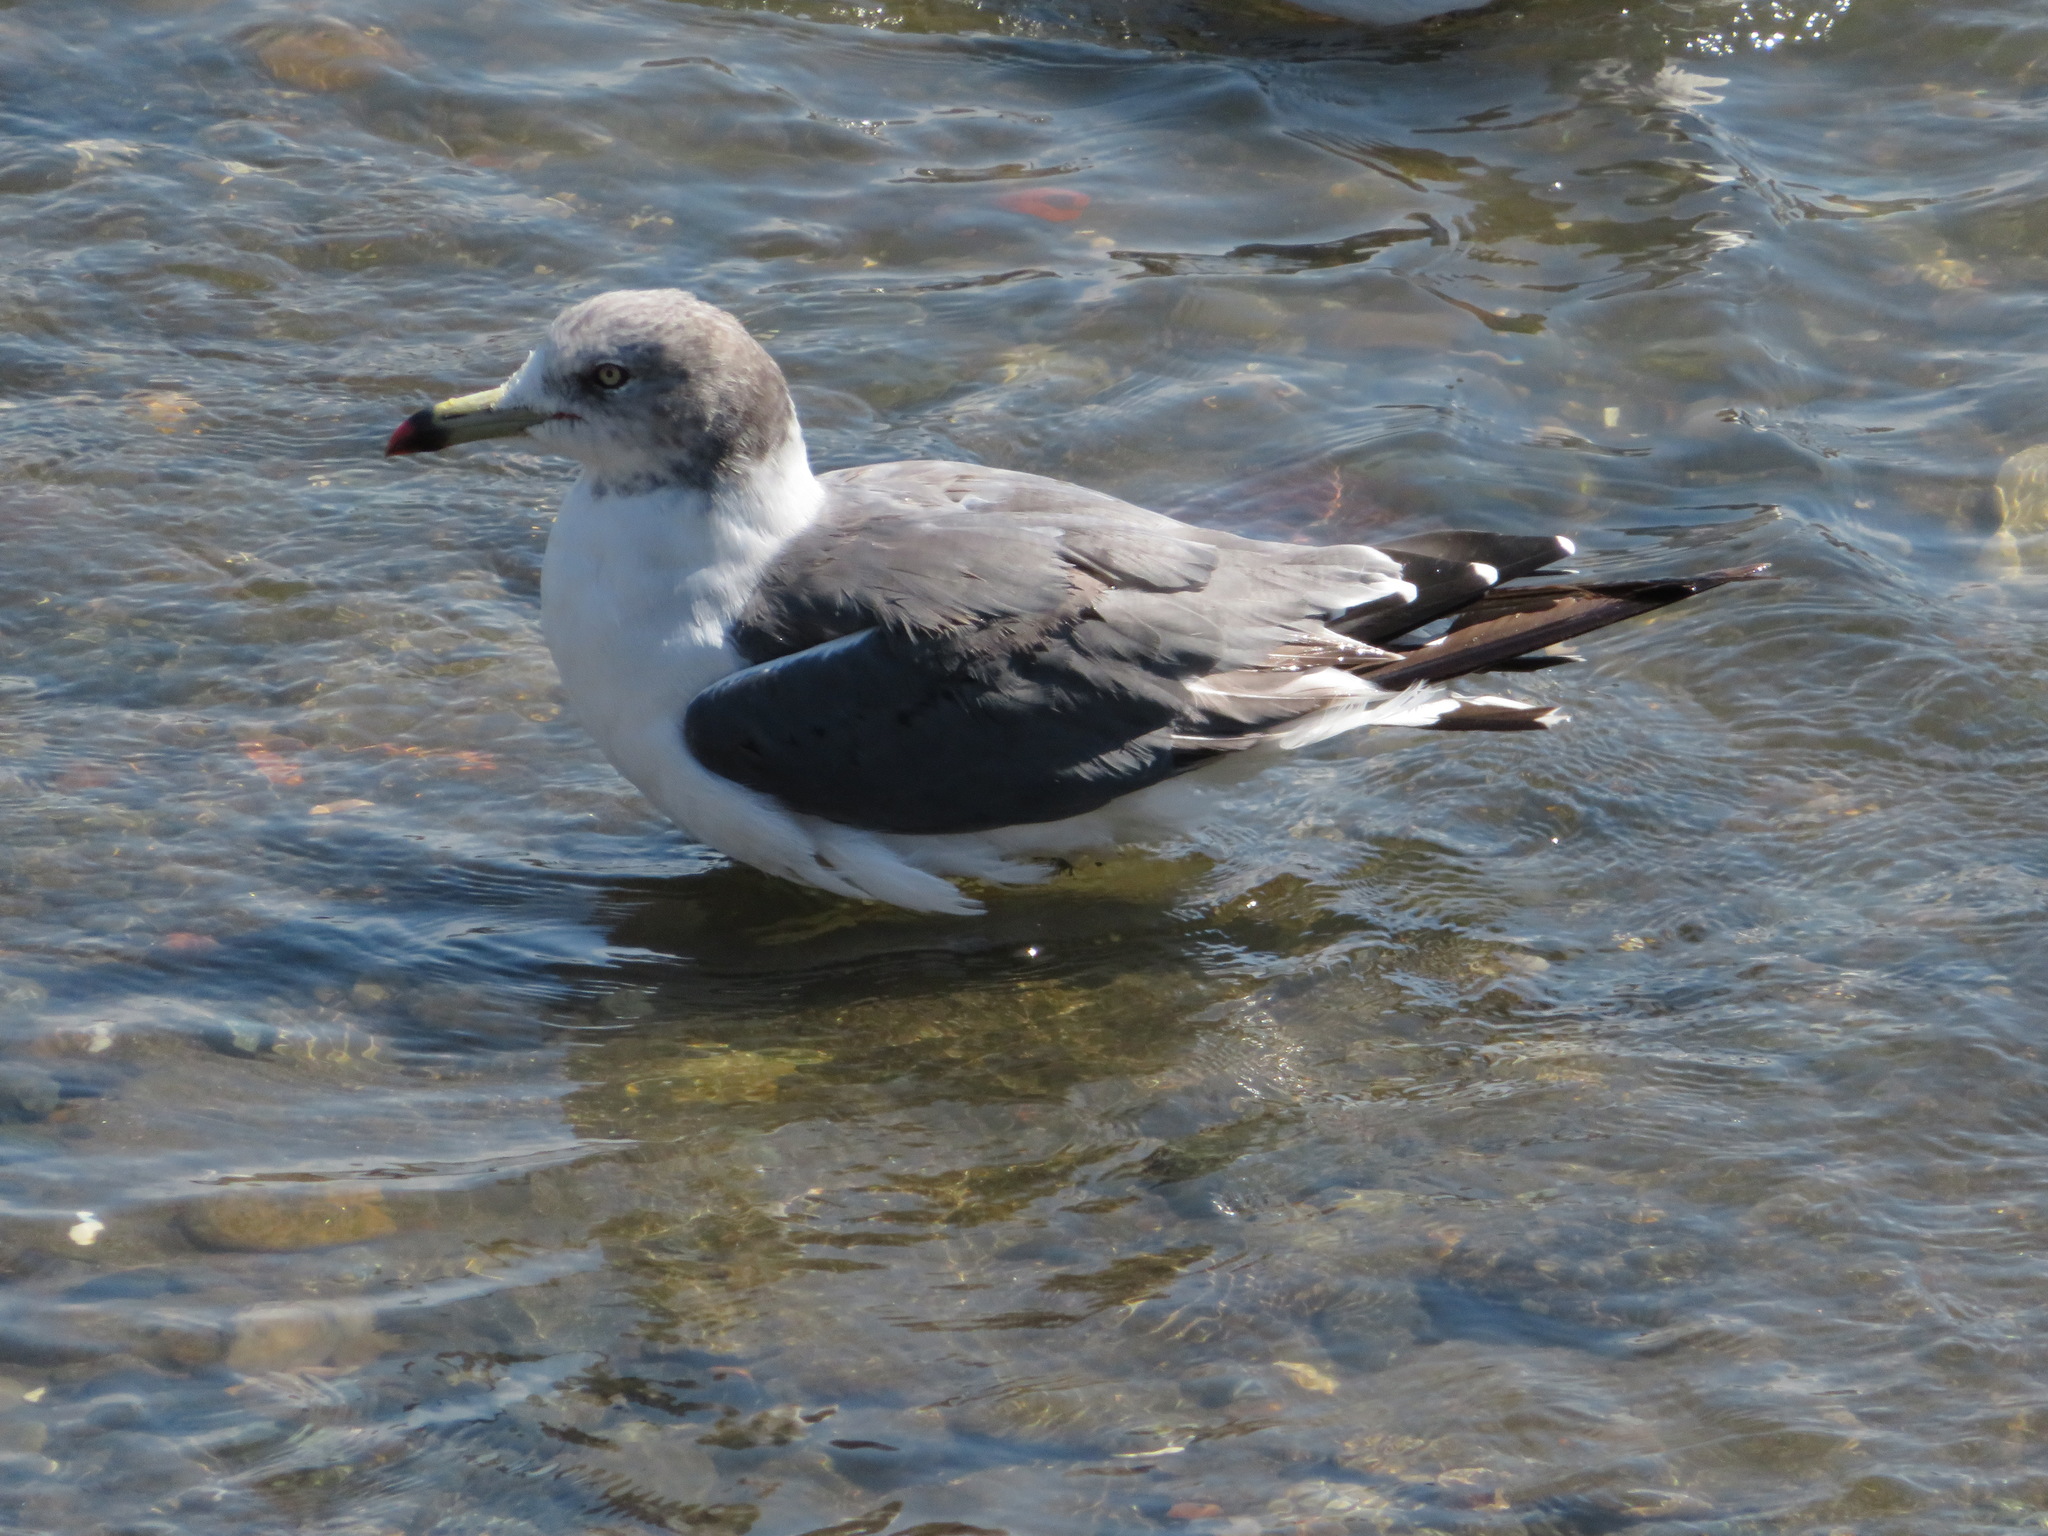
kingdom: Animalia
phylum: Chordata
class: Aves
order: Charadriiformes
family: Laridae
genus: Larus
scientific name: Larus crassirostris
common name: Black-tailed gull
